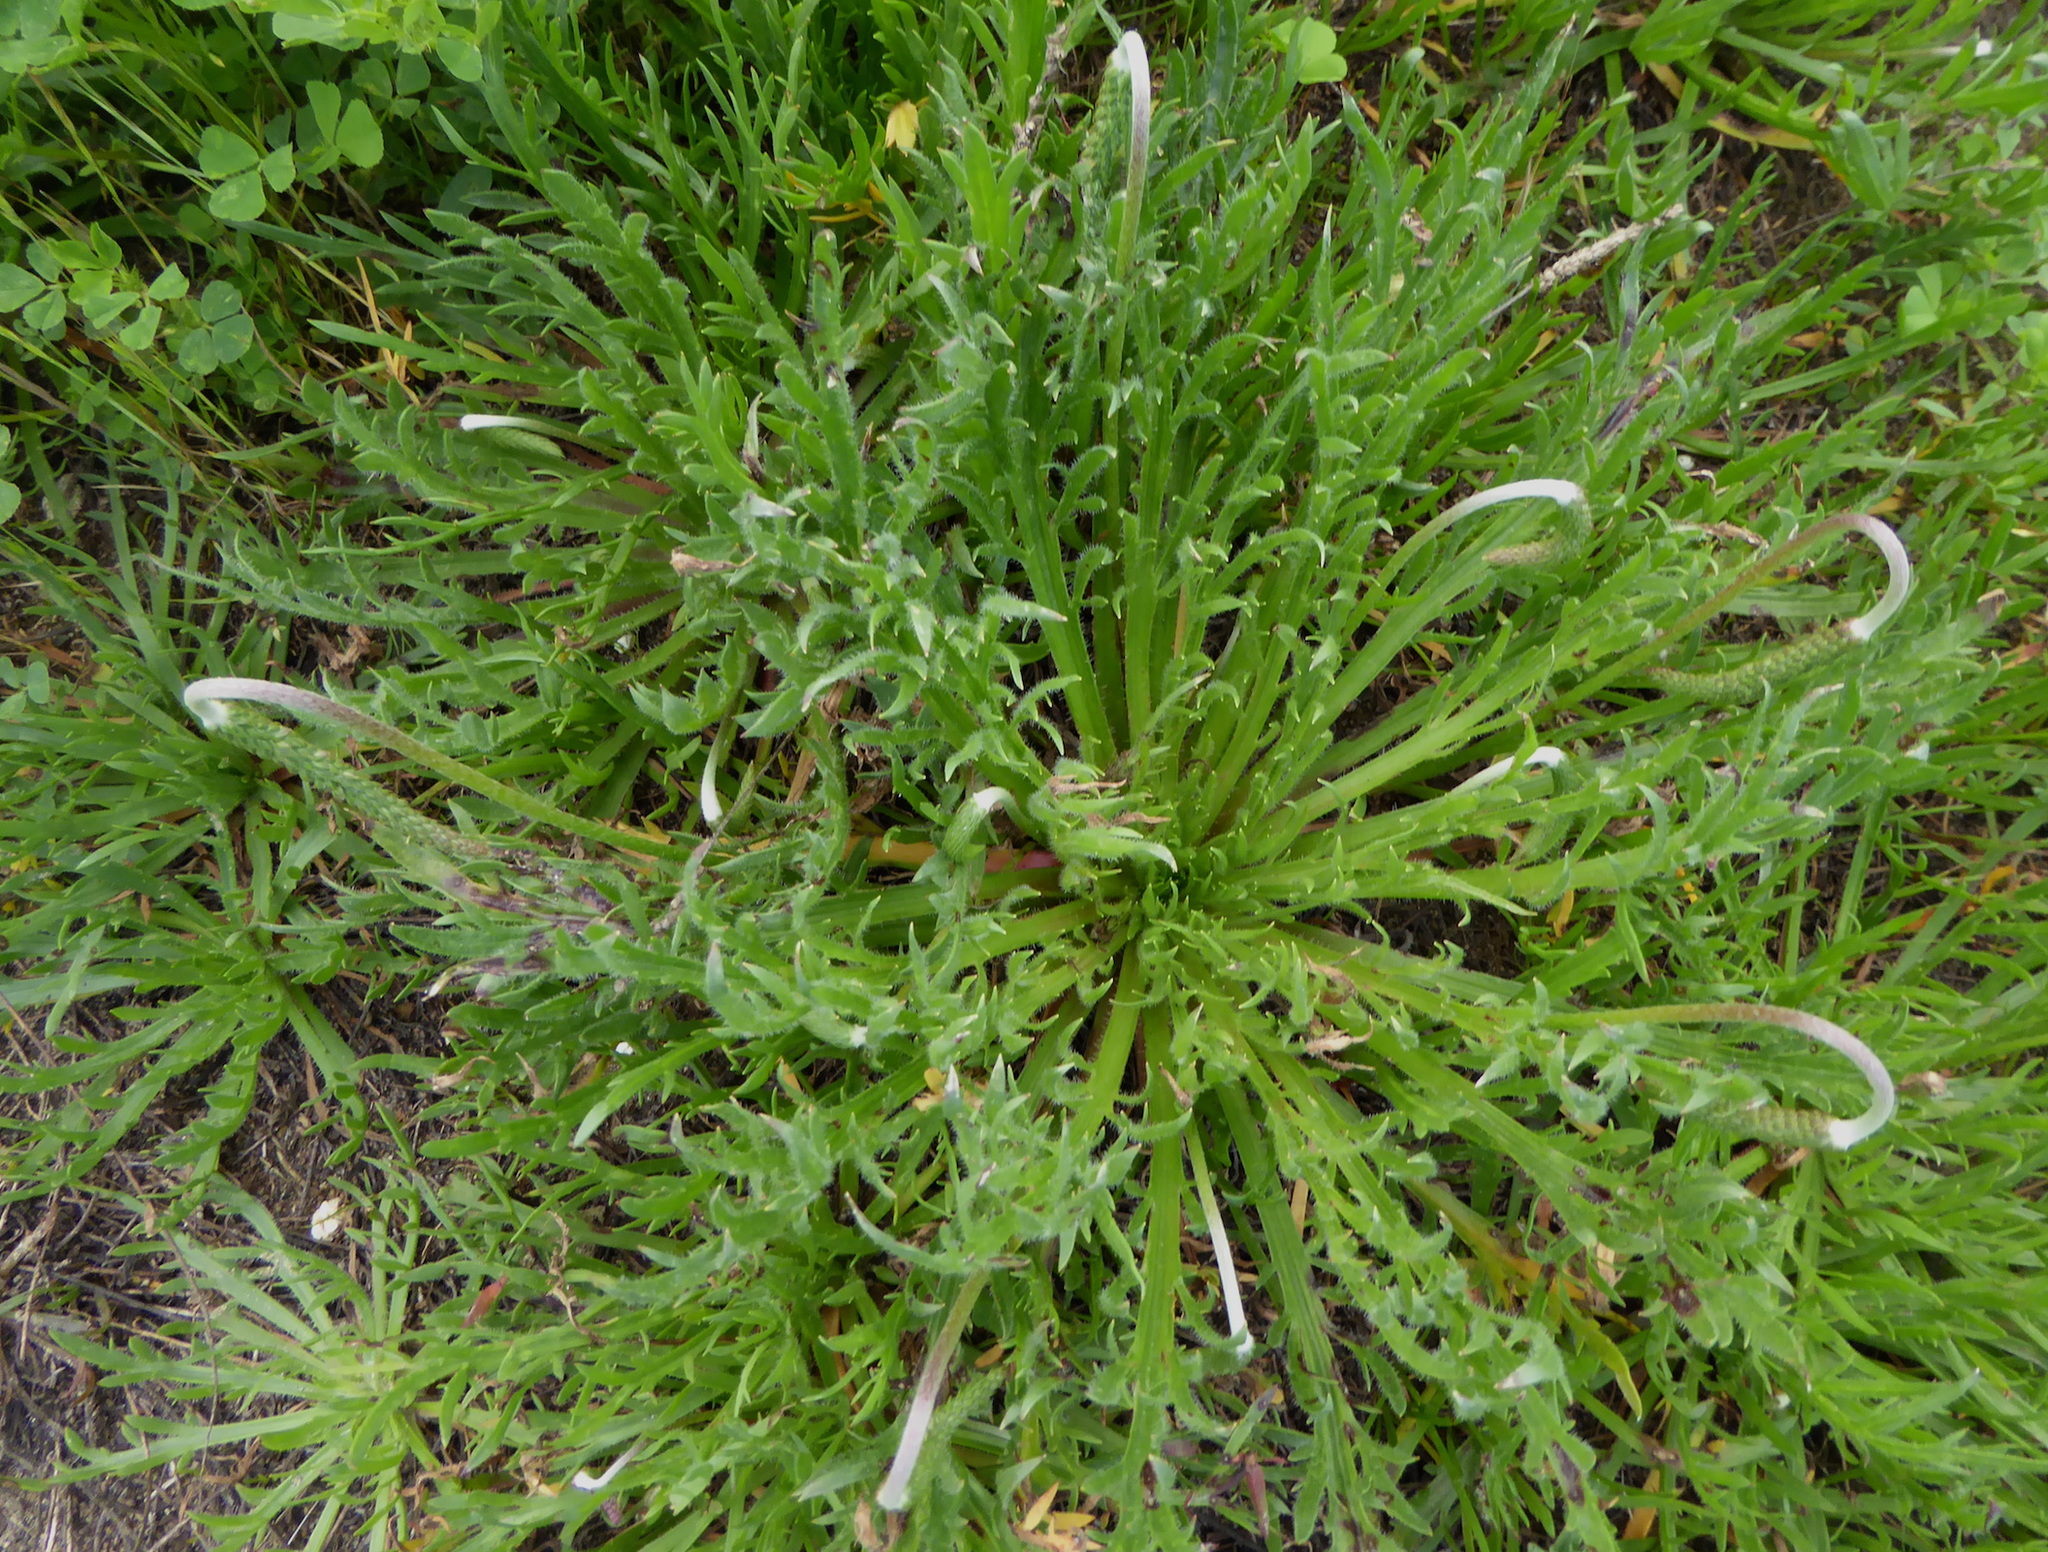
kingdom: Plantae
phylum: Tracheophyta
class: Magnoliopsida
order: Lamiales
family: Plantaginaceae
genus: Plantago
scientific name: Plantago coronopus
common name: Buck's-horn plantain
